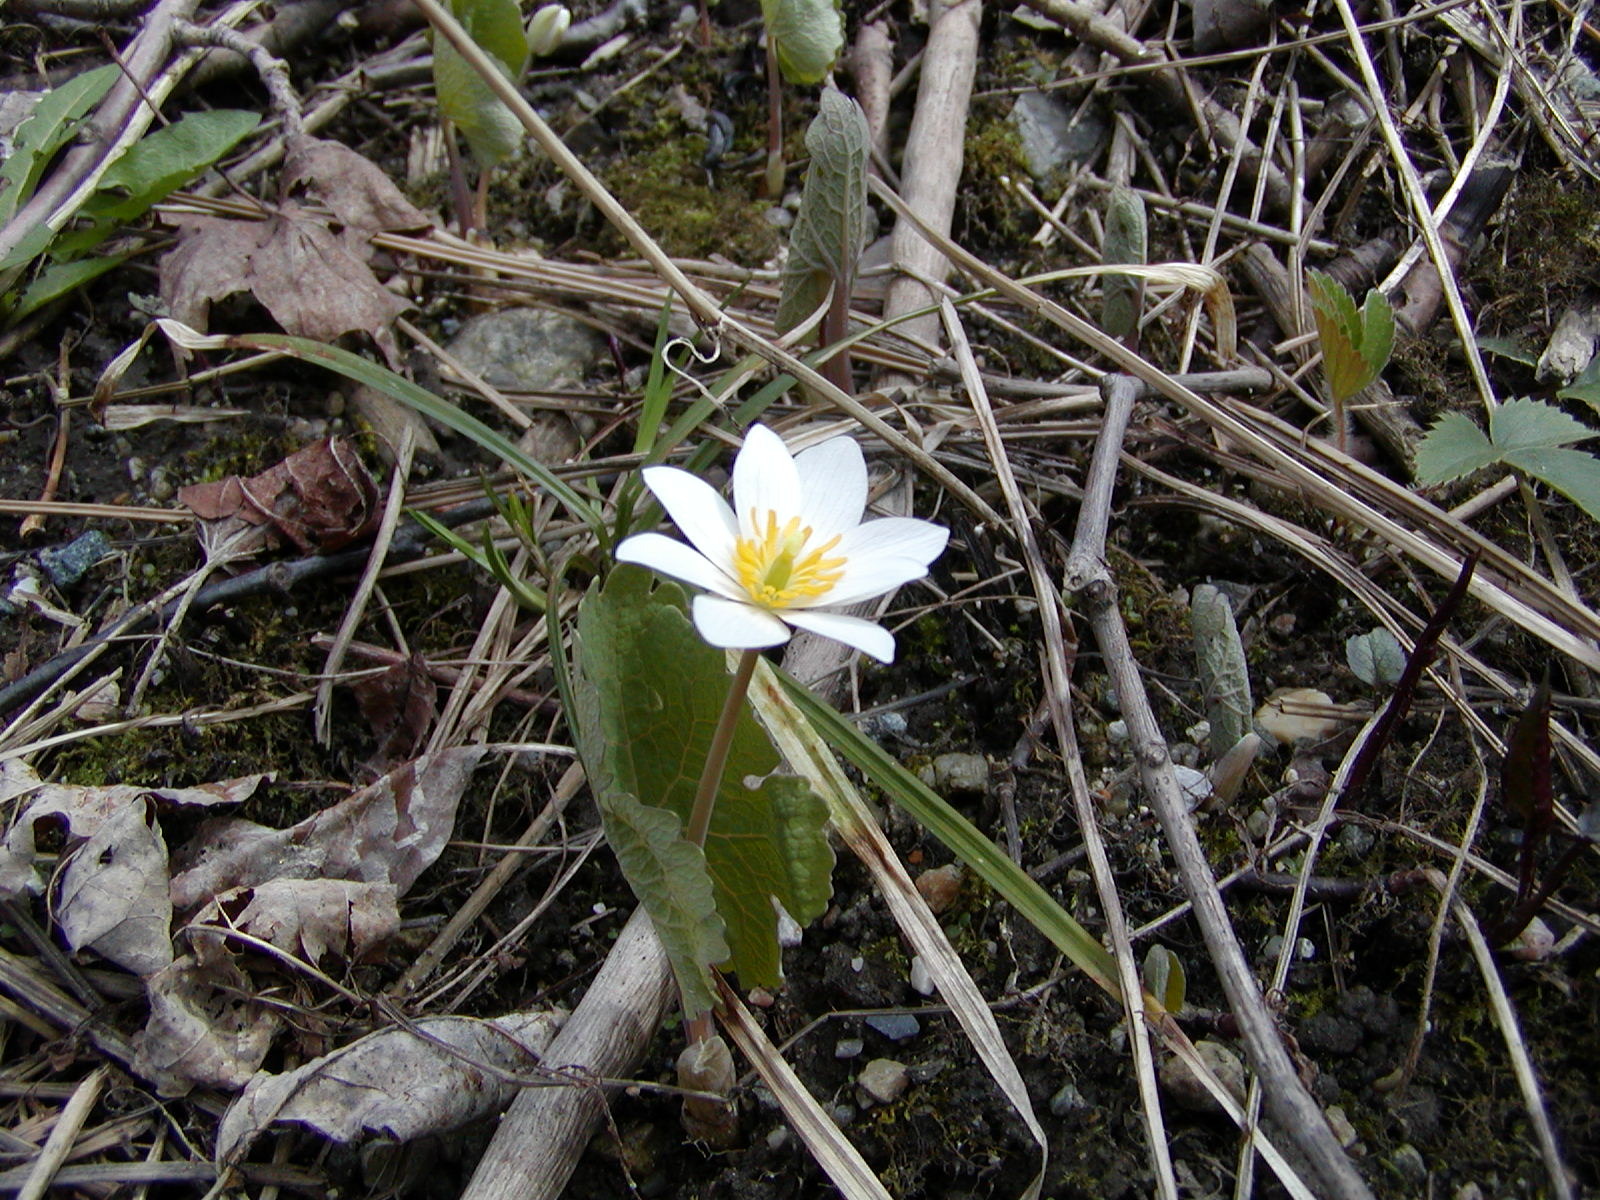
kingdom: Plantae
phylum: Tracheophyta
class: Magnoliopsida
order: Ranunculales
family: Papaveraceae
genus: Sanguinaria
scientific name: Sanguinaria canadensis
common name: Bloodroot
